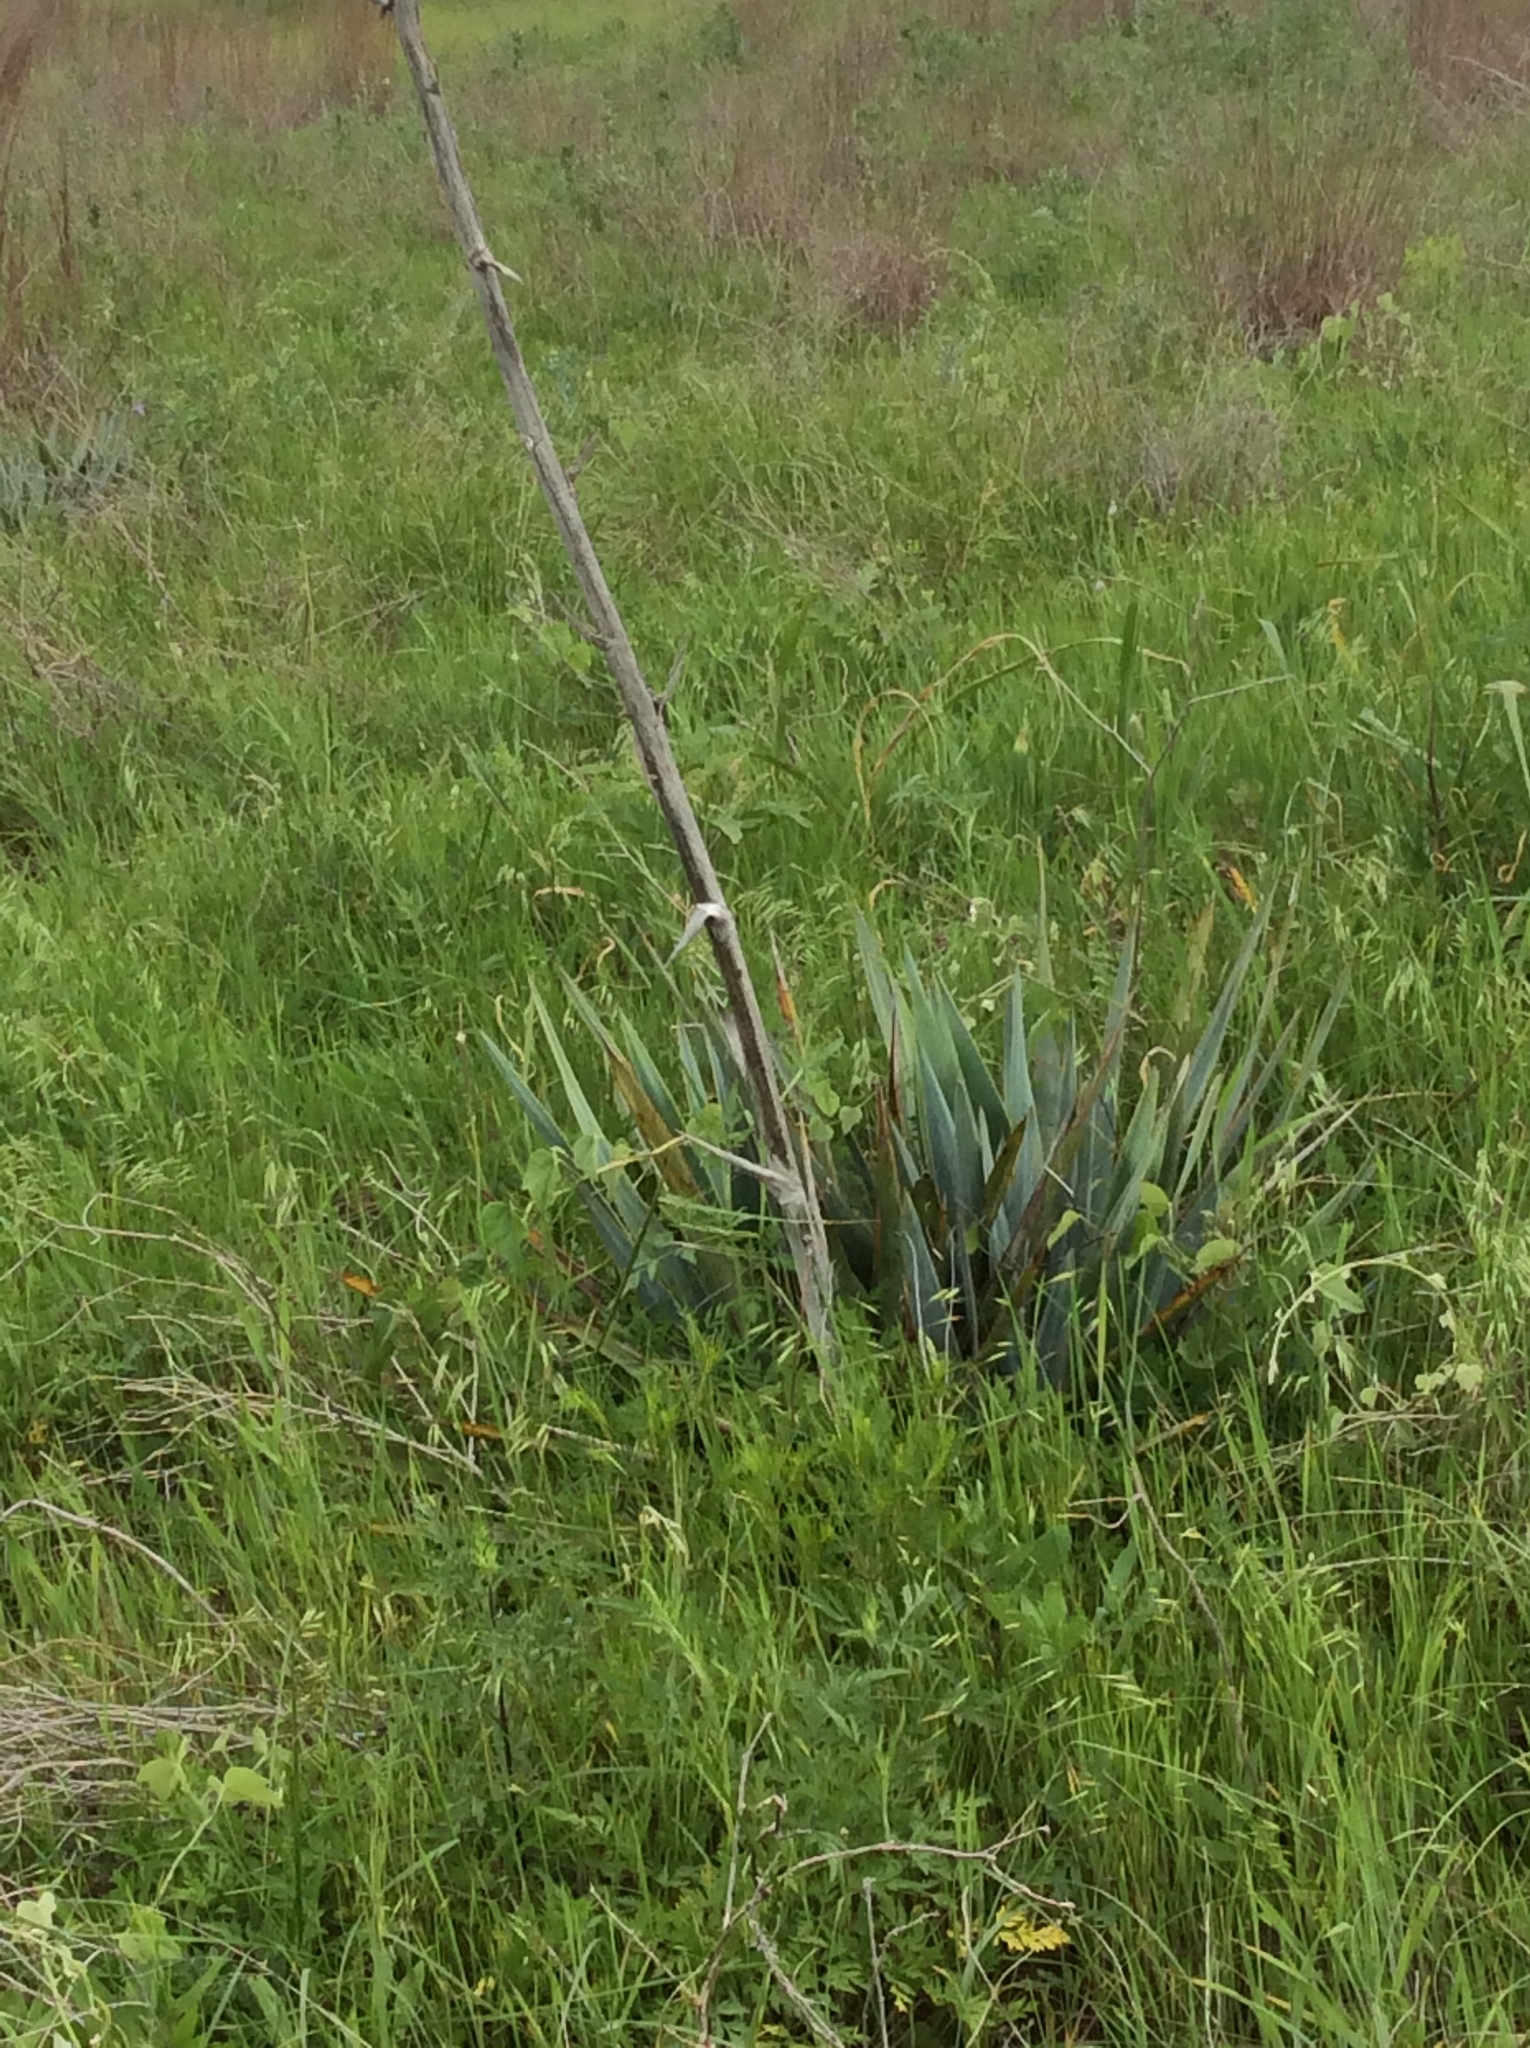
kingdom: Plantae
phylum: Tracheophyta
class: Liliopsida
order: Asparagales
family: Asparagaceae
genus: Yucca
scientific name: Yucca pallida
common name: Pale leaf yucca
